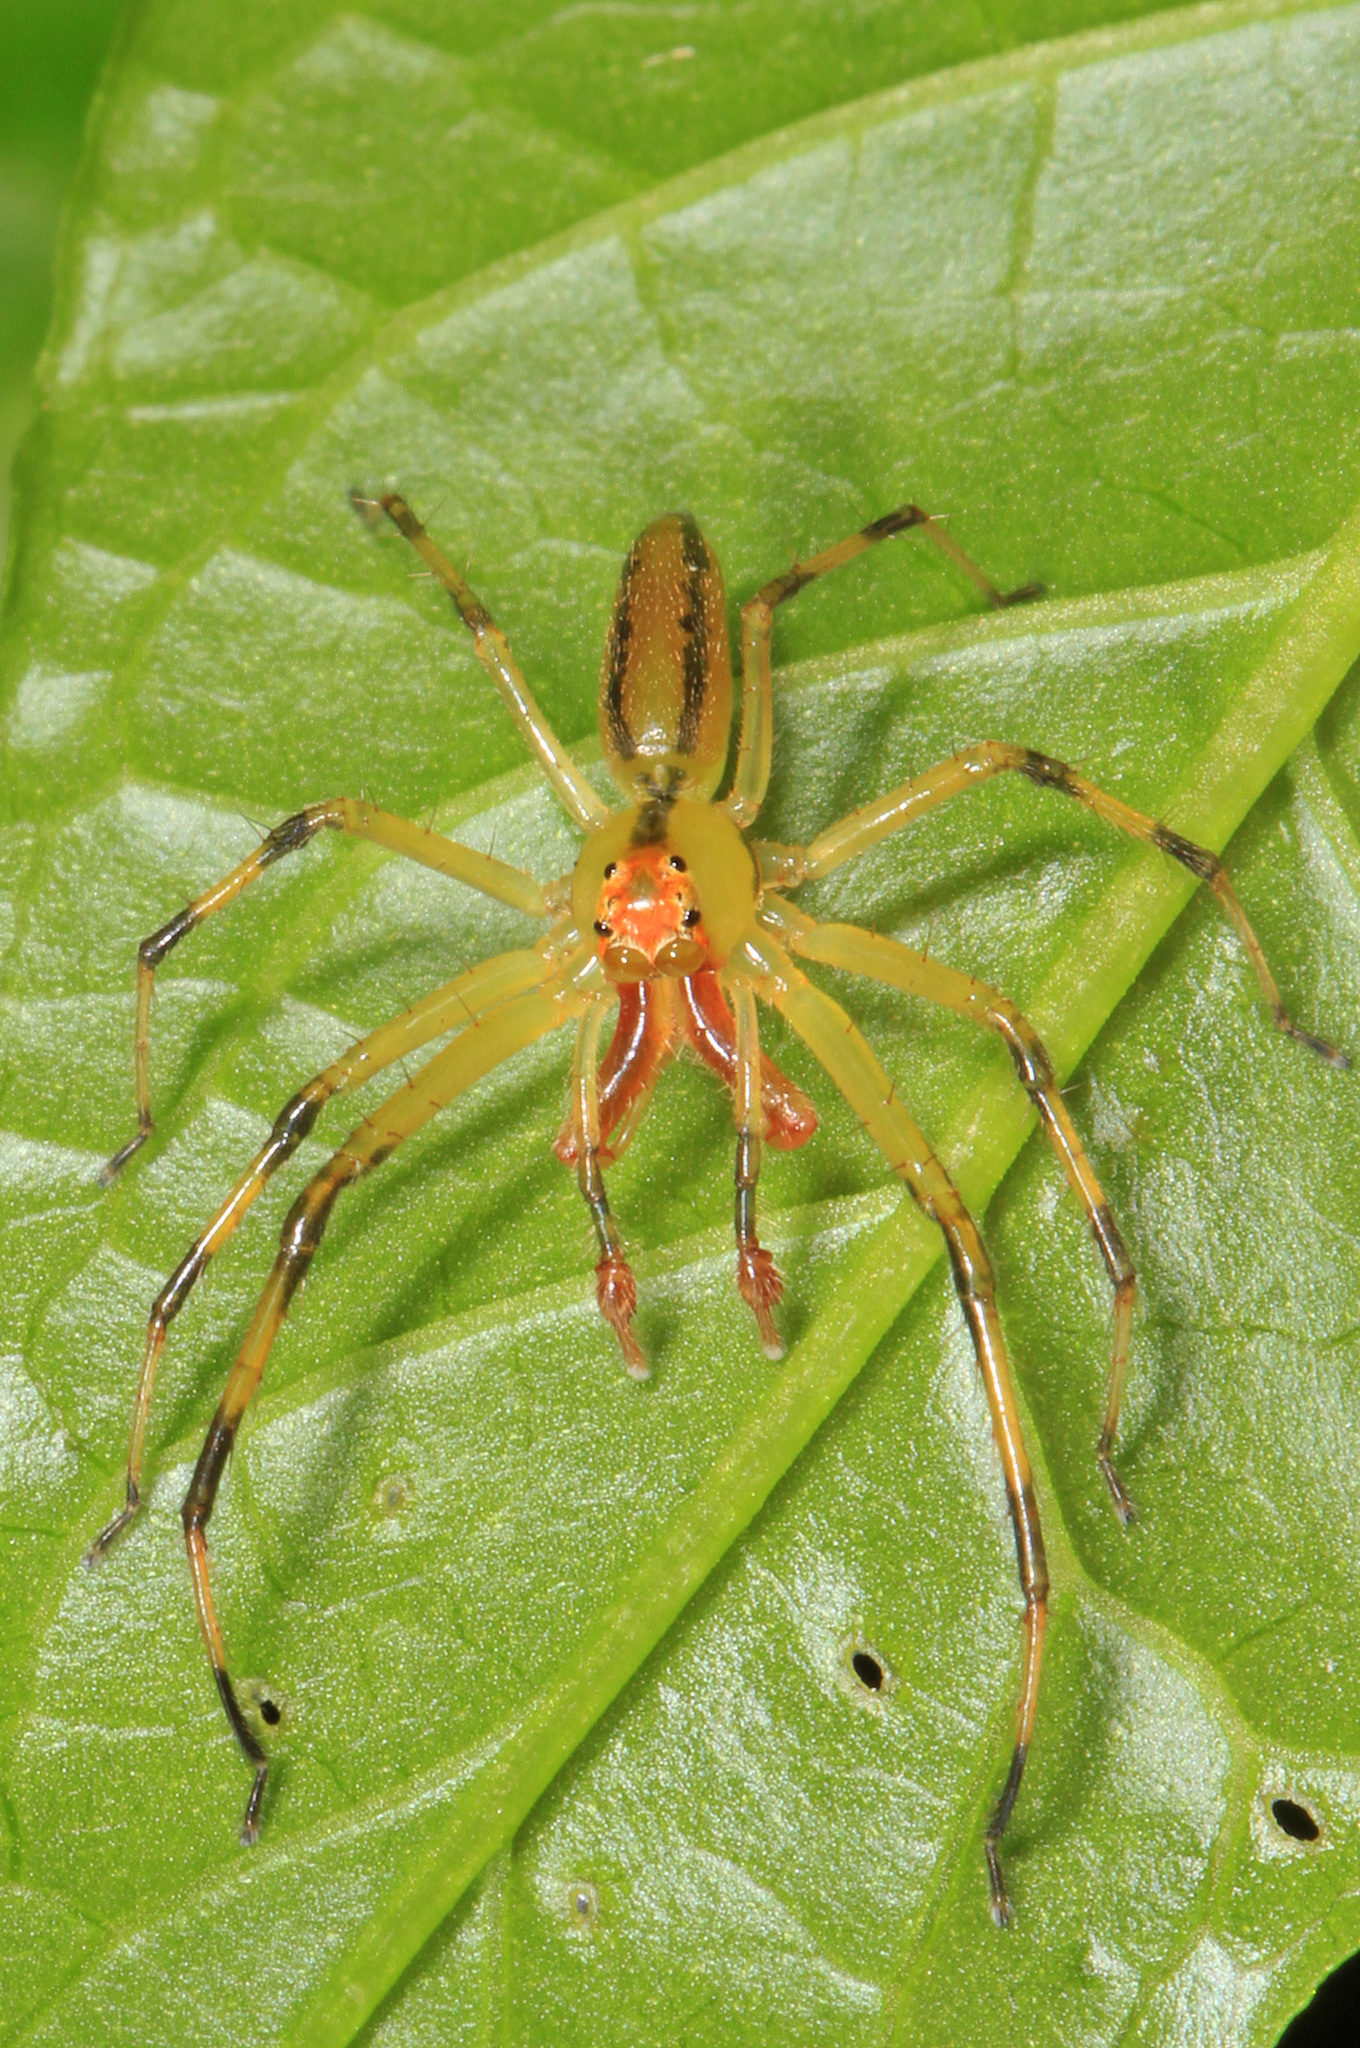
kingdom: Animalia
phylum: Arthropoda
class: Arachnida
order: Araneae
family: Salticidae
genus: Lyssomanes
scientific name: Lyssomanes viridis
